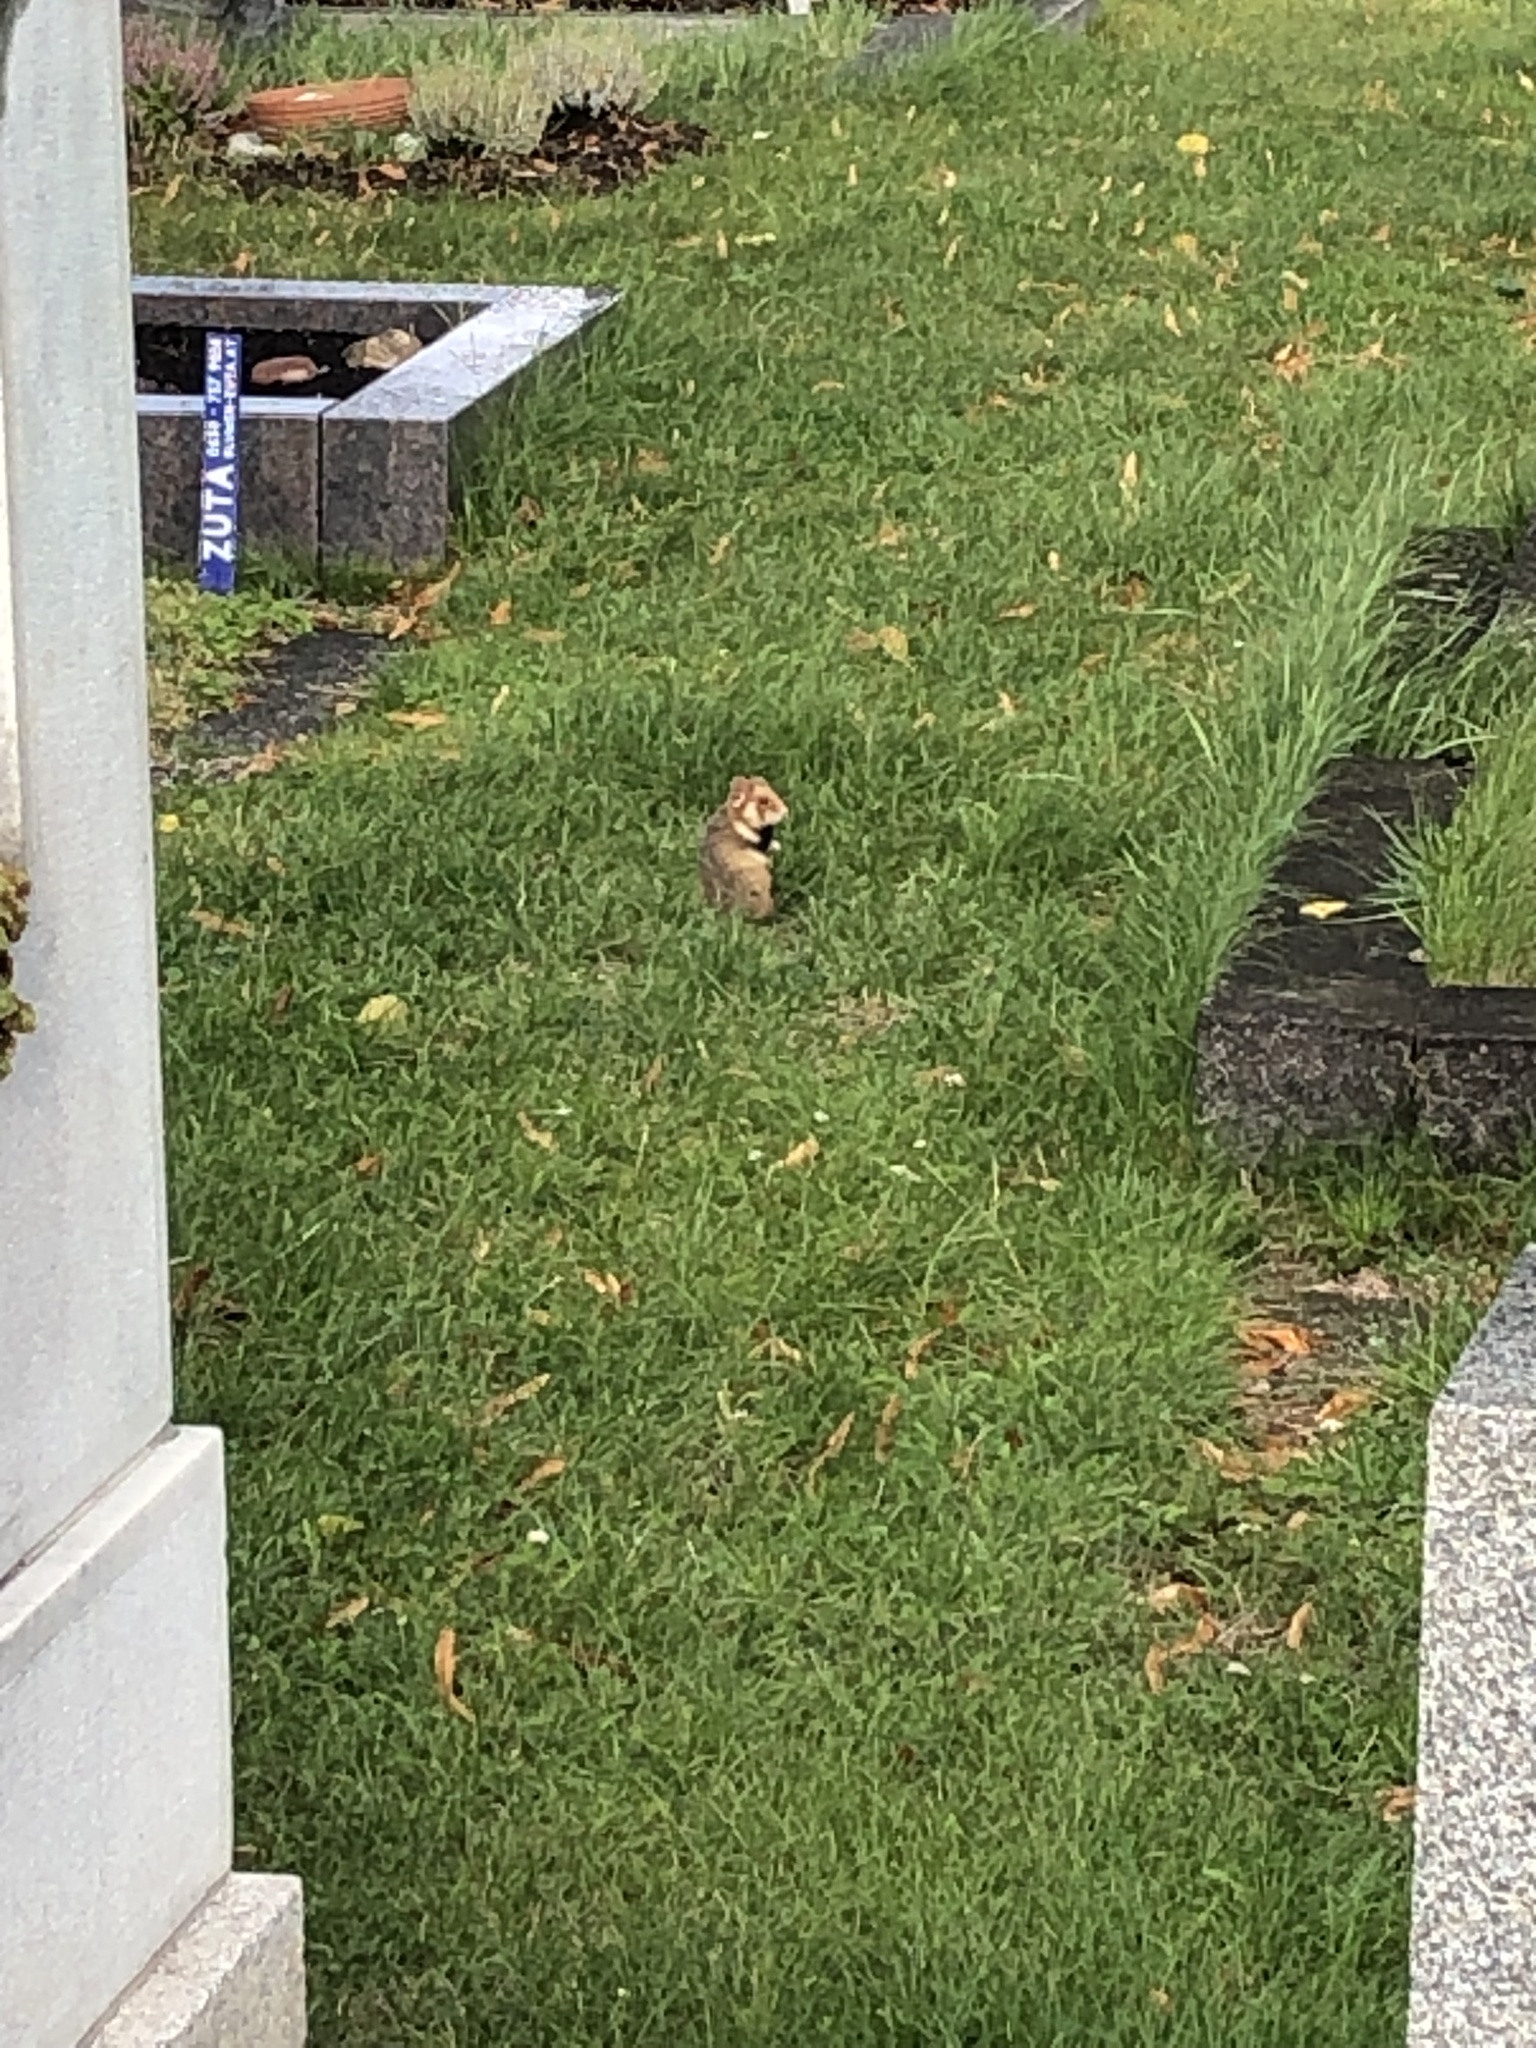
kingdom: Animalia
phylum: Chordata
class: Mammalia
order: Rodentia
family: Cricetidae
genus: Cricetus
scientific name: Cricetus cricetus
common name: Common hamster
